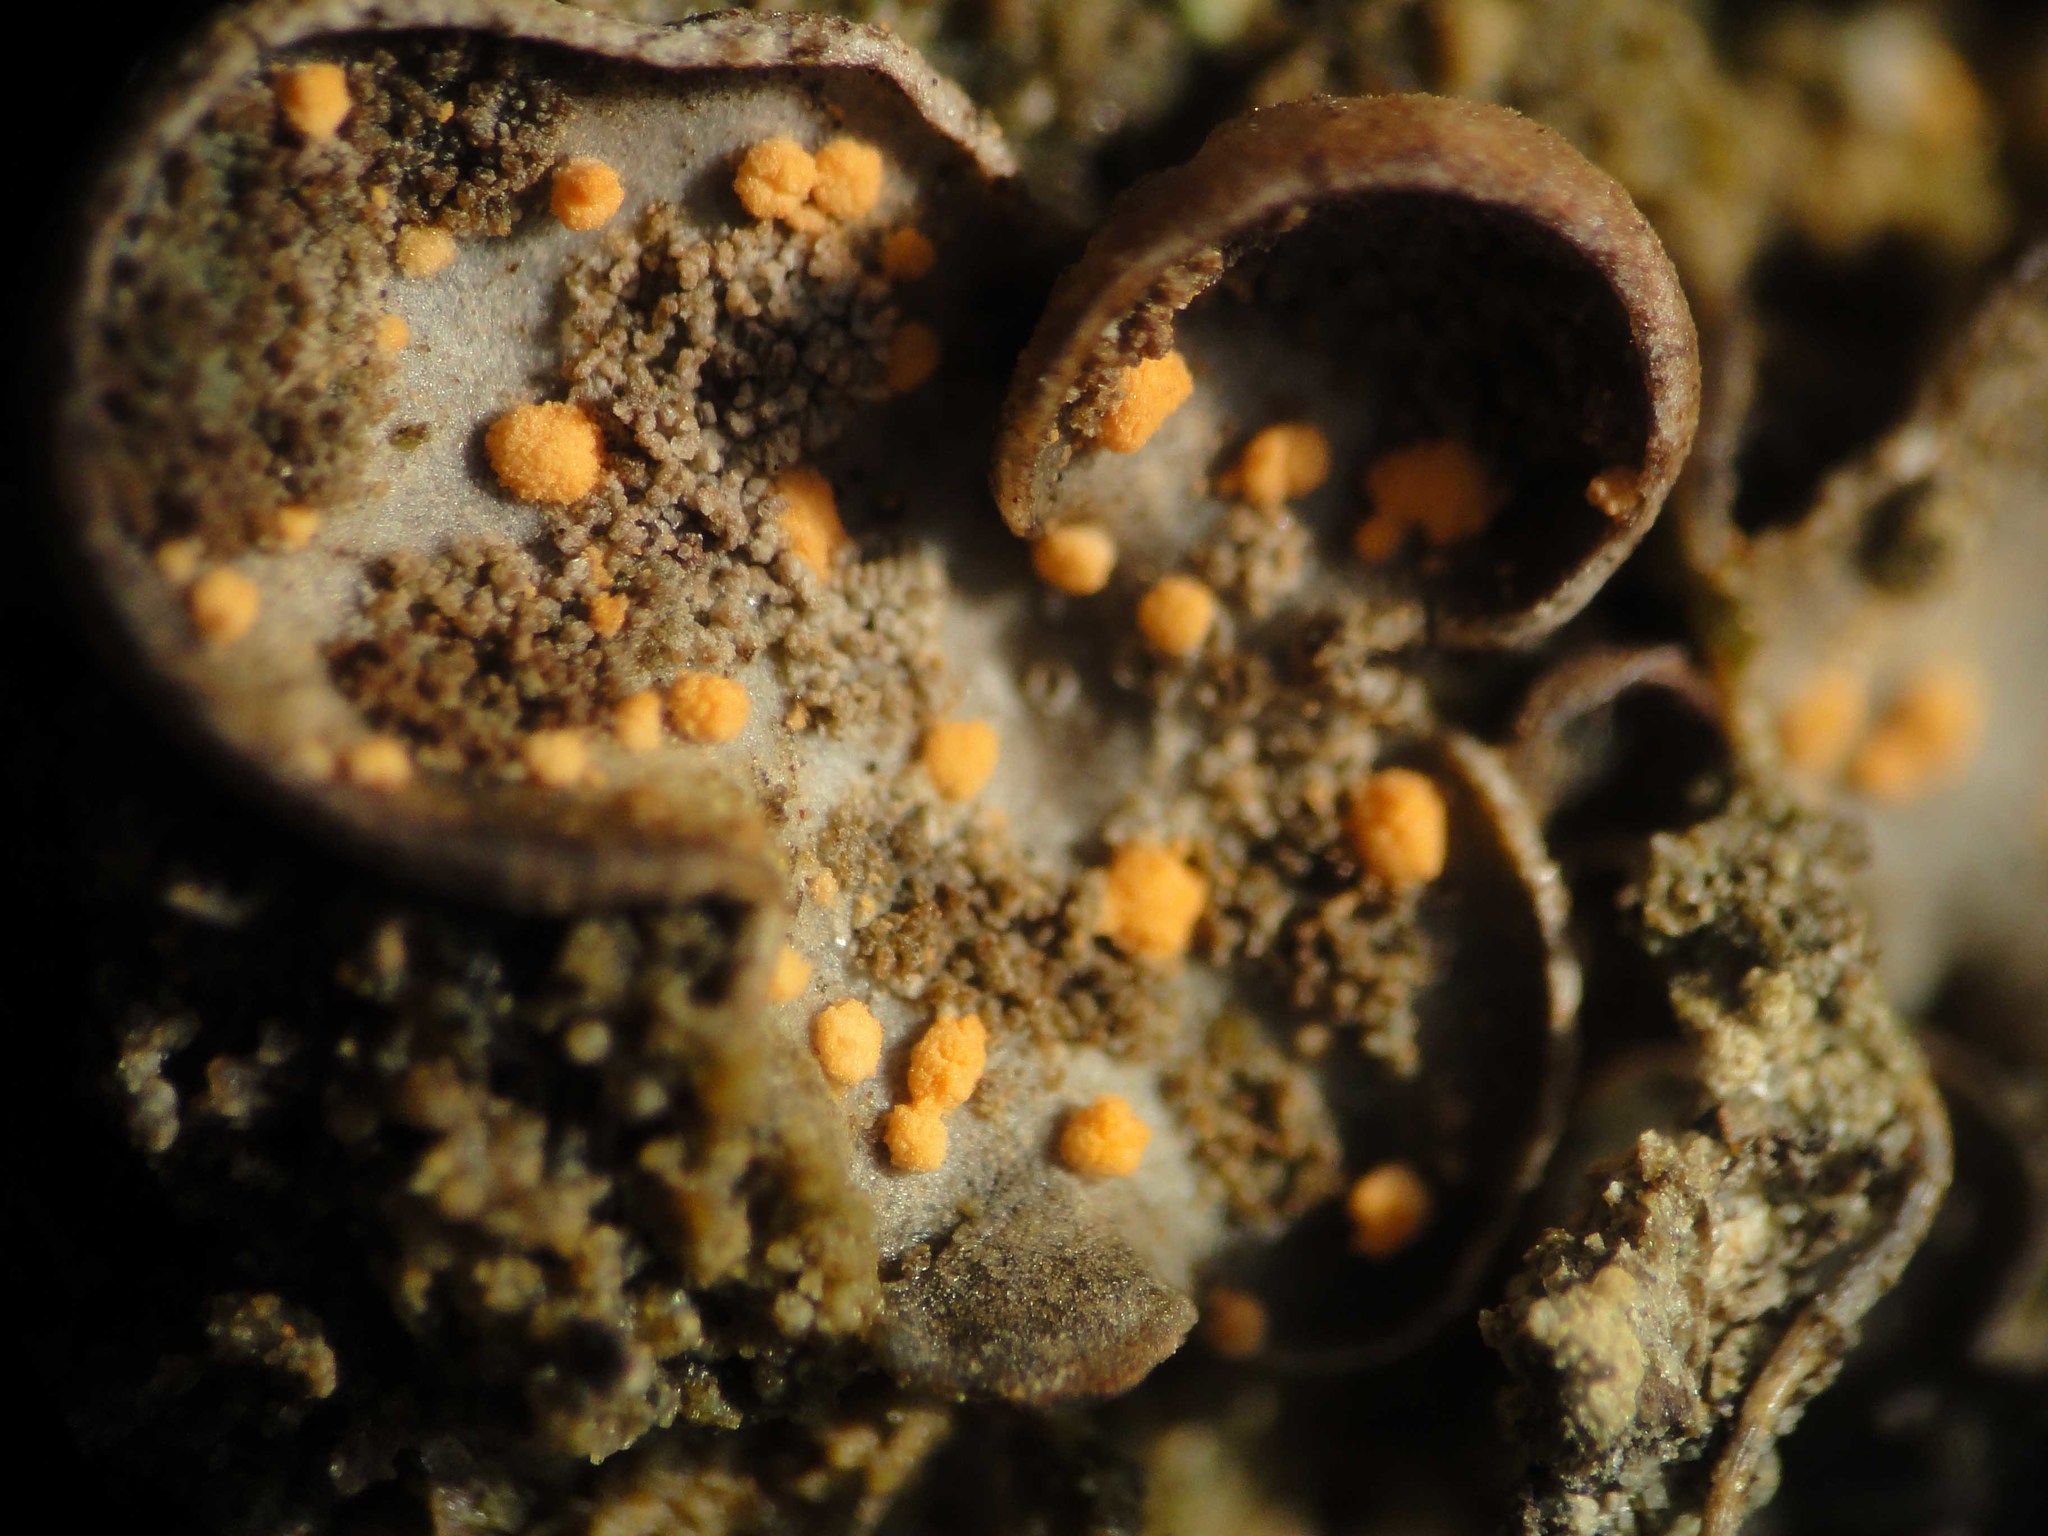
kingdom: Fungi
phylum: Ascomycota
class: Sordariomycetes
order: Hypocreales
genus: Illosporiopsis
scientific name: Illosporiopsis christiansenii
